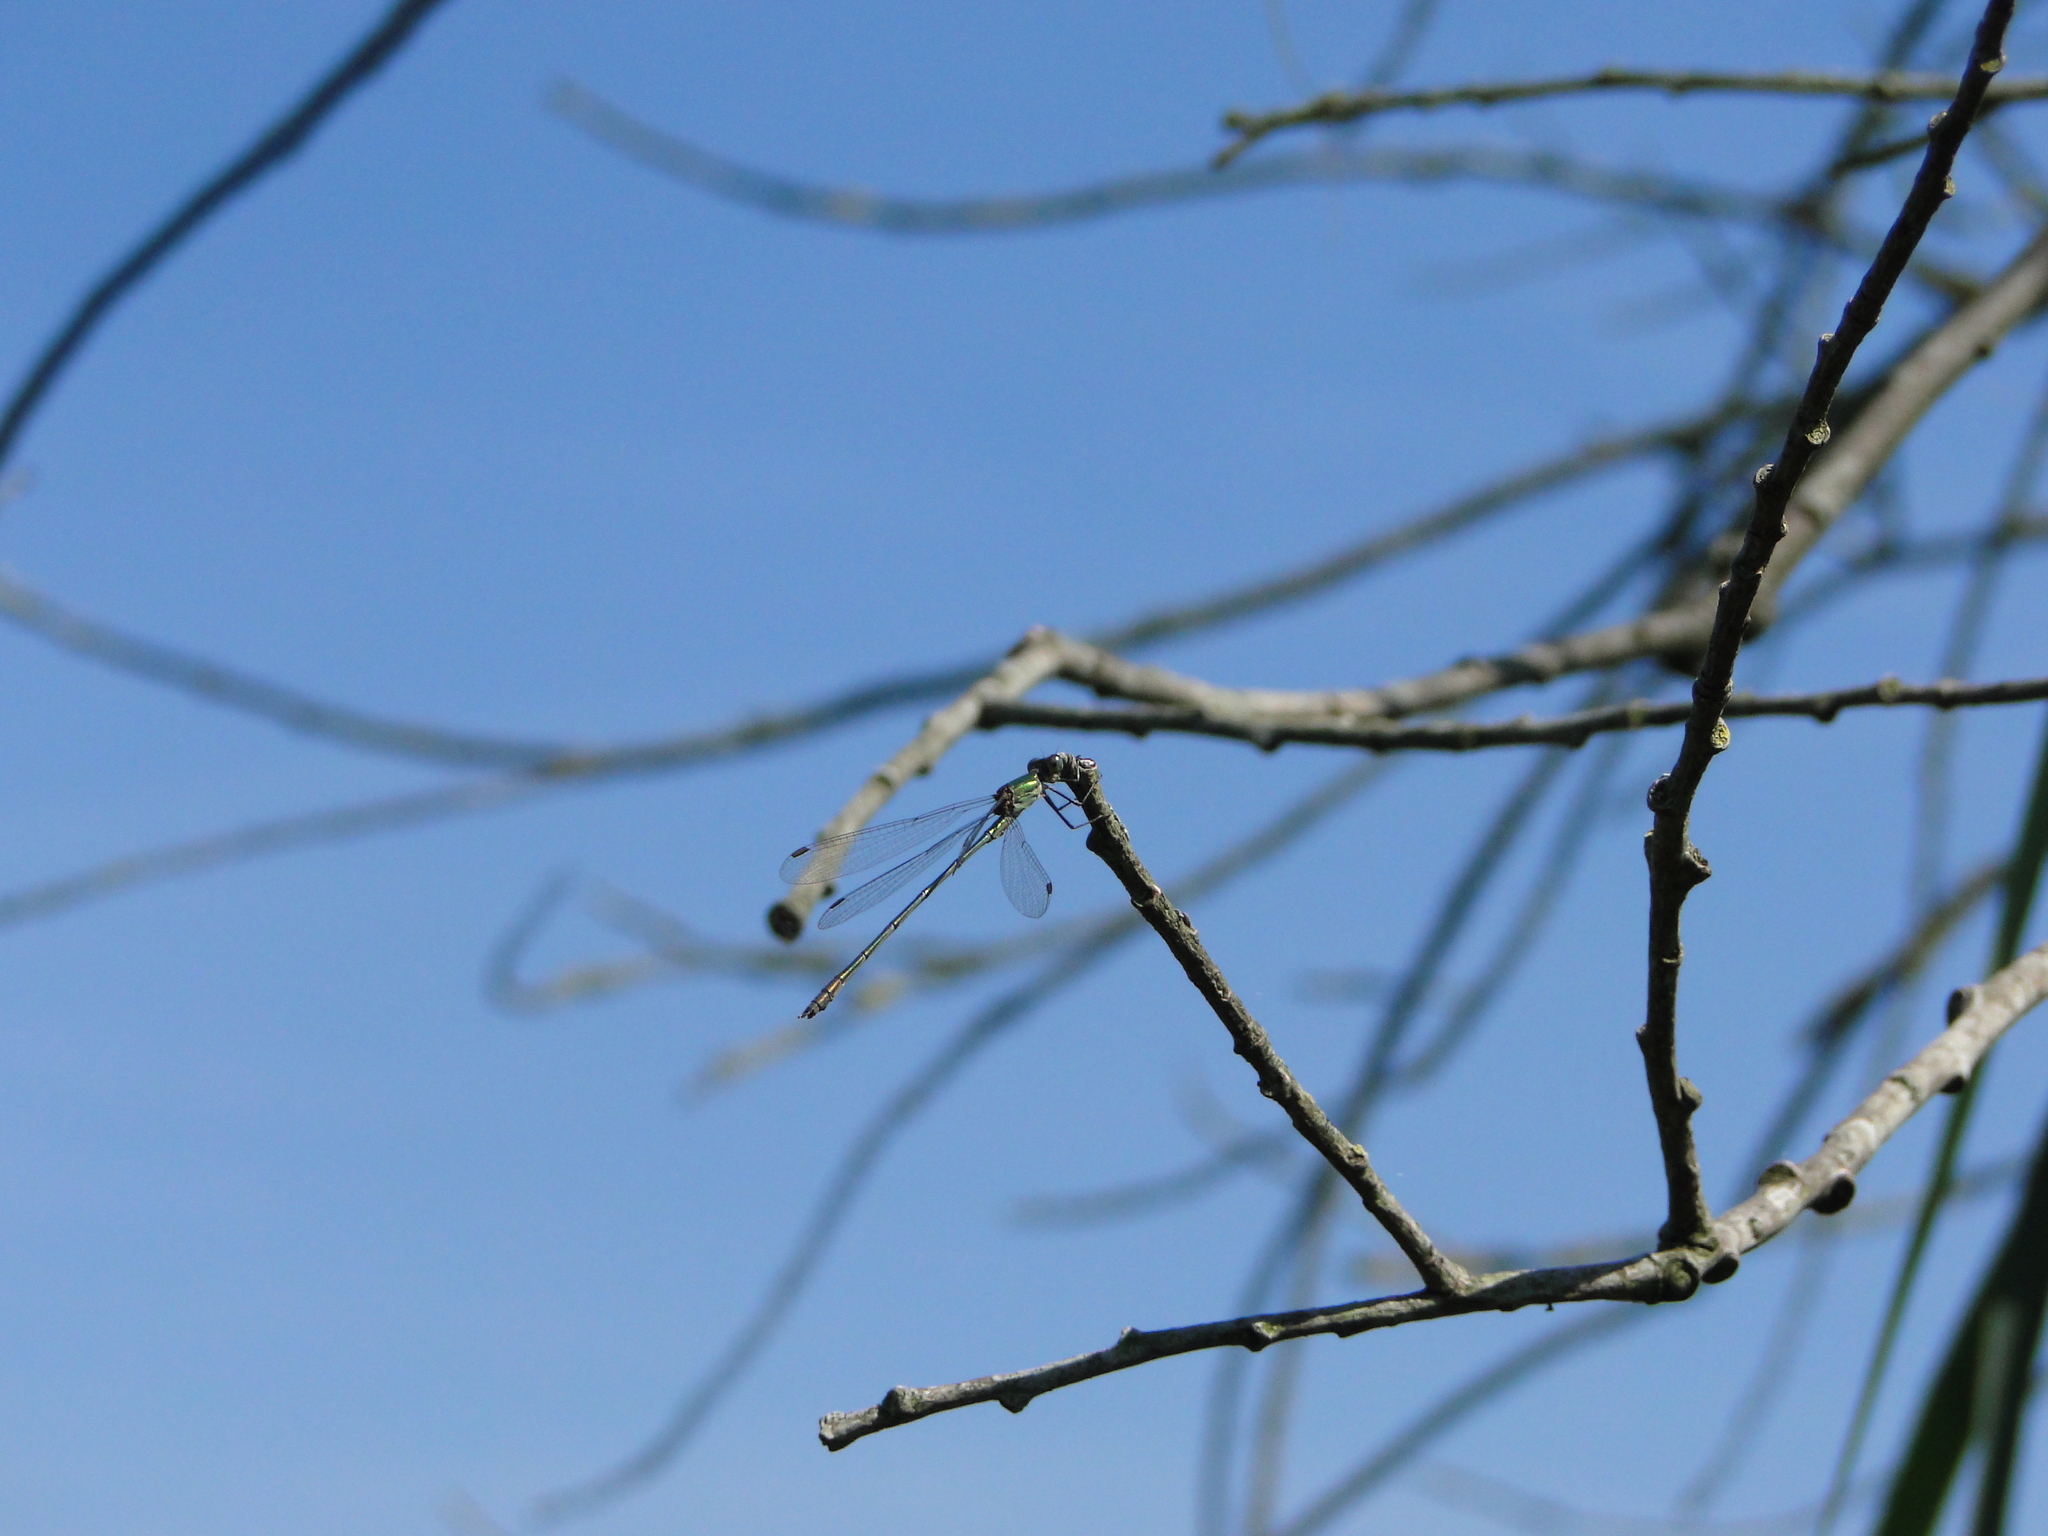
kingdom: Animalia
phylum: Arthropoda
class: Insecta
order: Odonata
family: Lestidae
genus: Chalcolestes
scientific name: Chalcolestes viridis
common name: Green emerald damselfly
